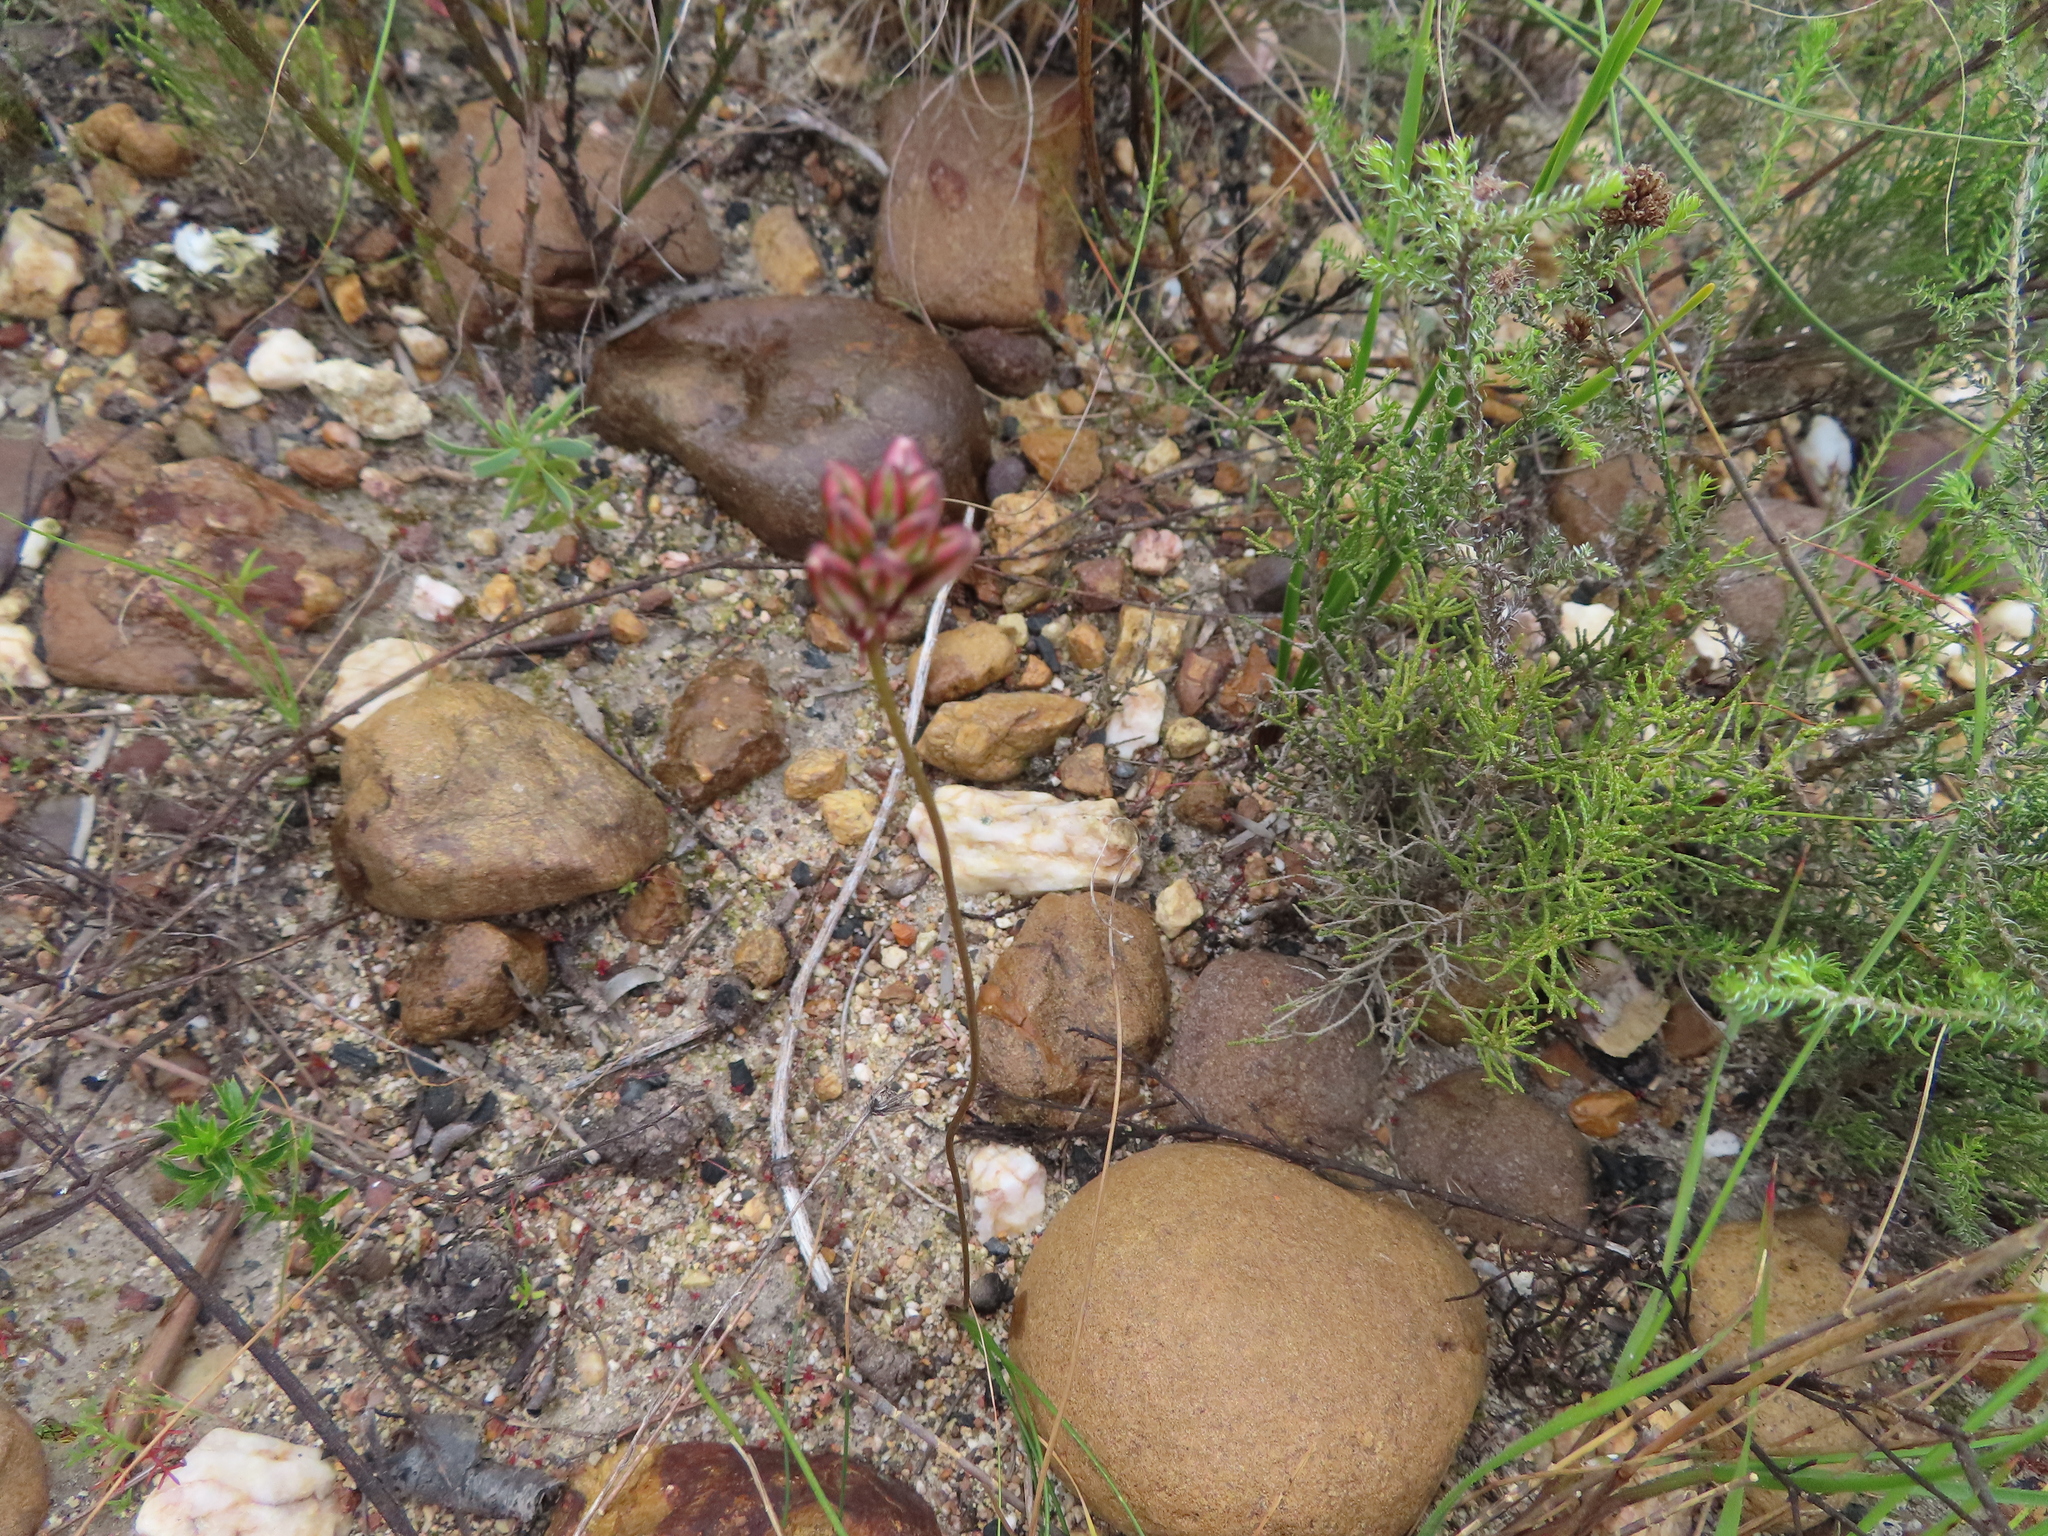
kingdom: Plantae
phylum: Tracheophyta
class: Liliopsida
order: Asparagales
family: Asparagaceae
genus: Drimia
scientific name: Drimia exuviata
